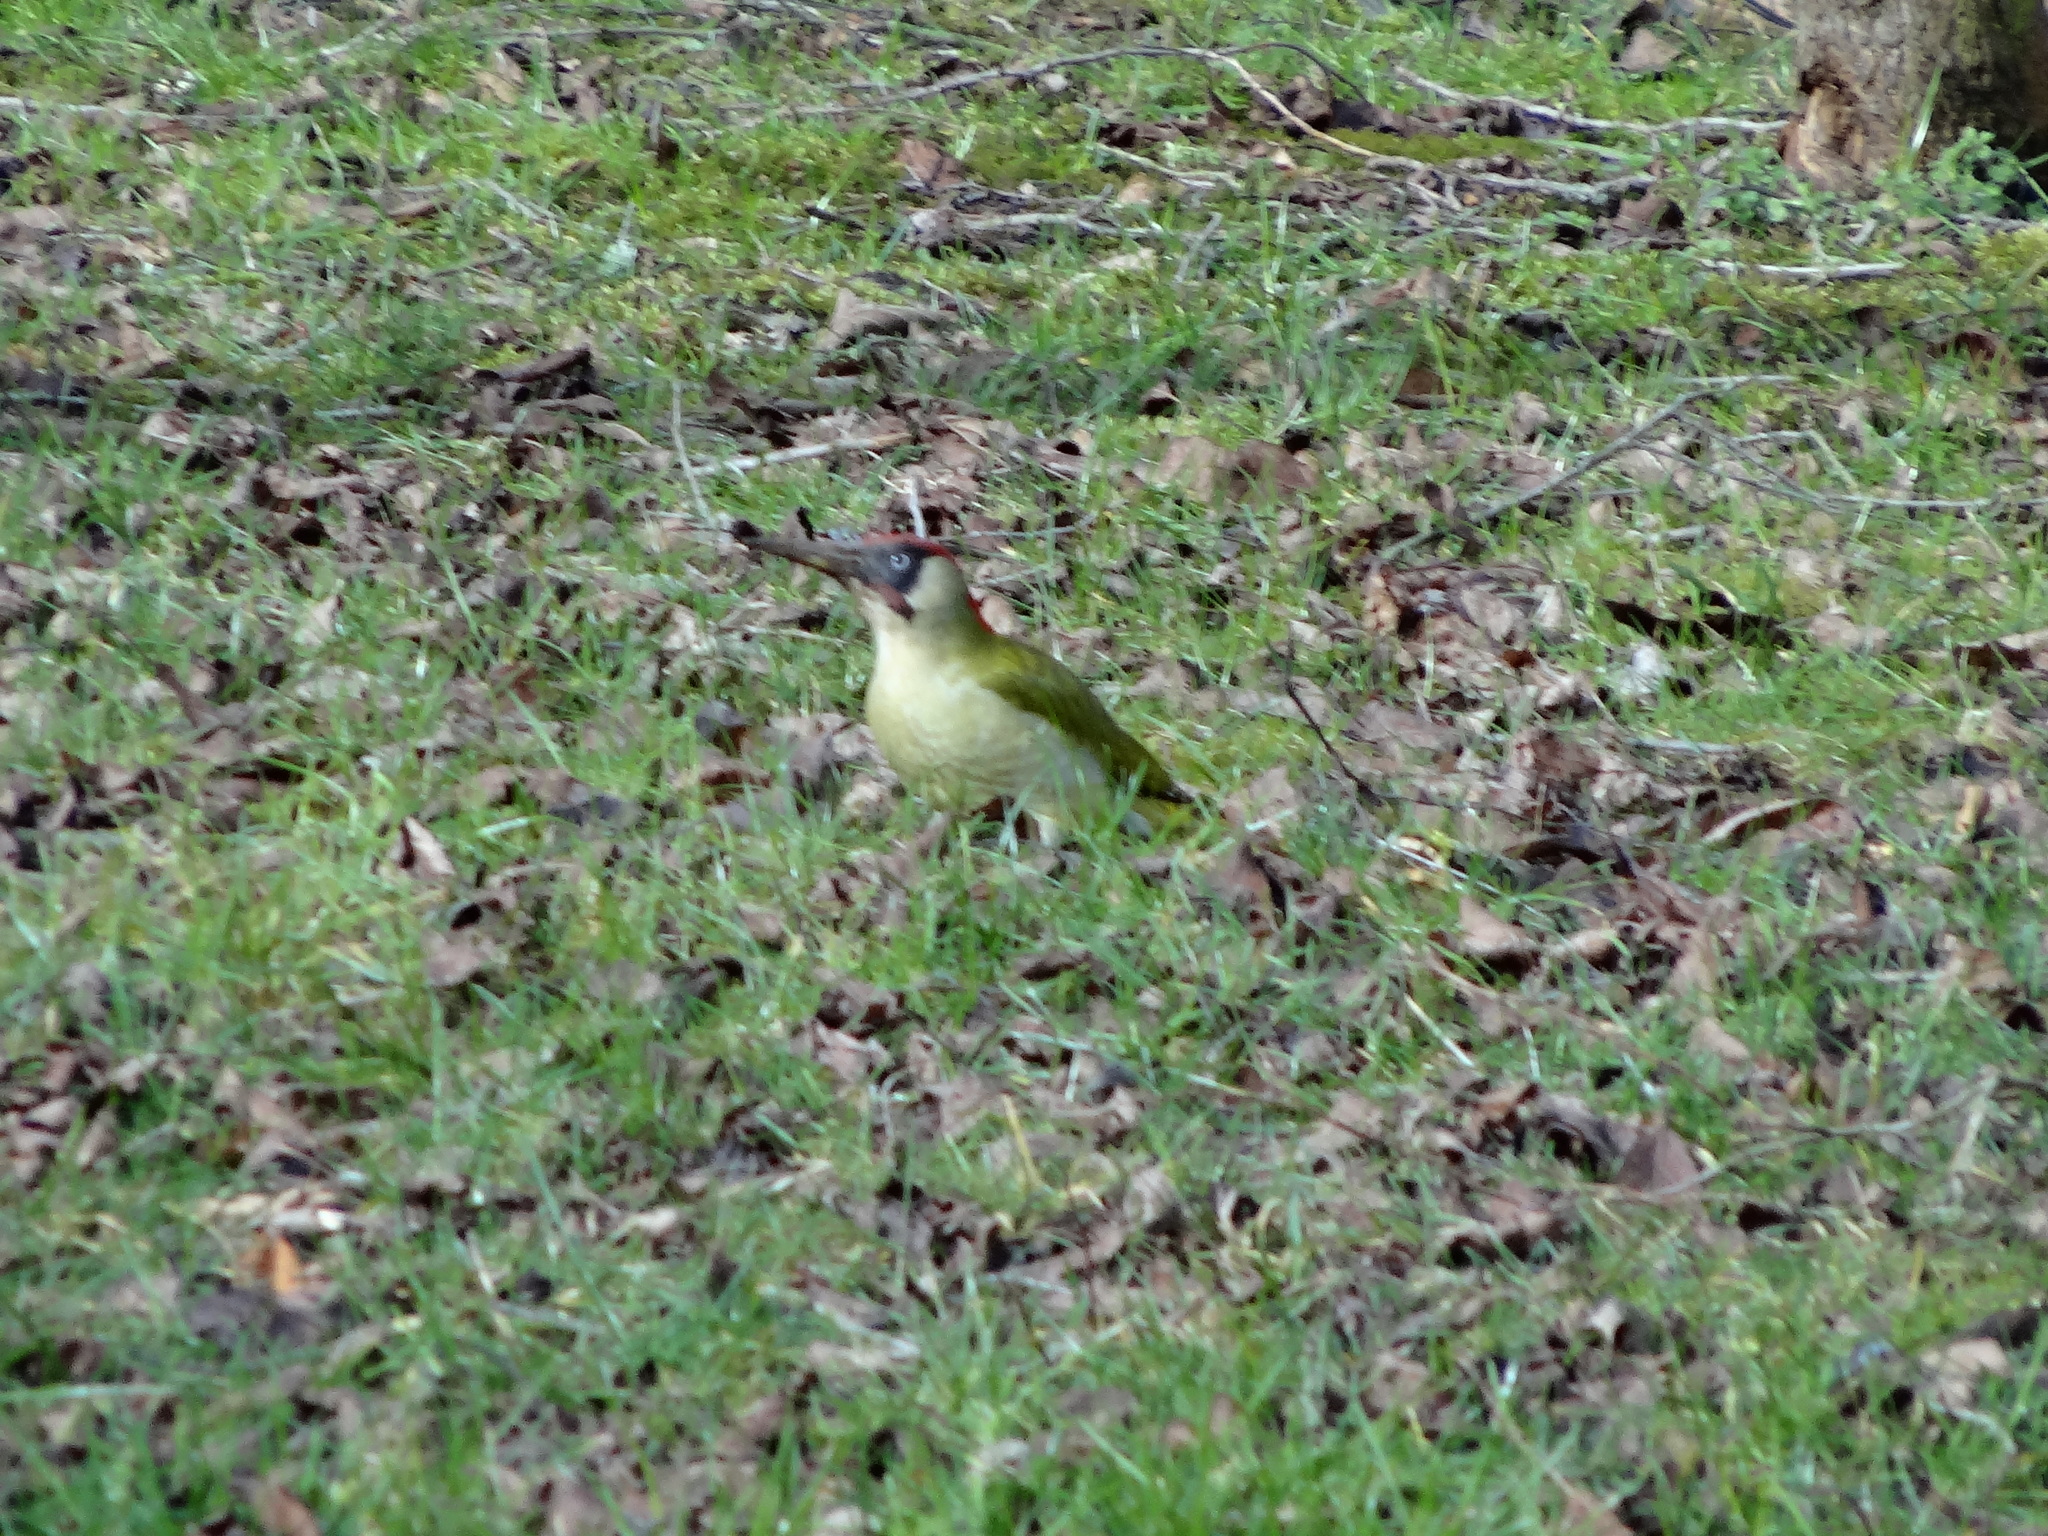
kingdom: Animalia
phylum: Chordata
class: Aves
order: Piciformes
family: Picidae
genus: Picus
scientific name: Picus viridis
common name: European green woodpecker
